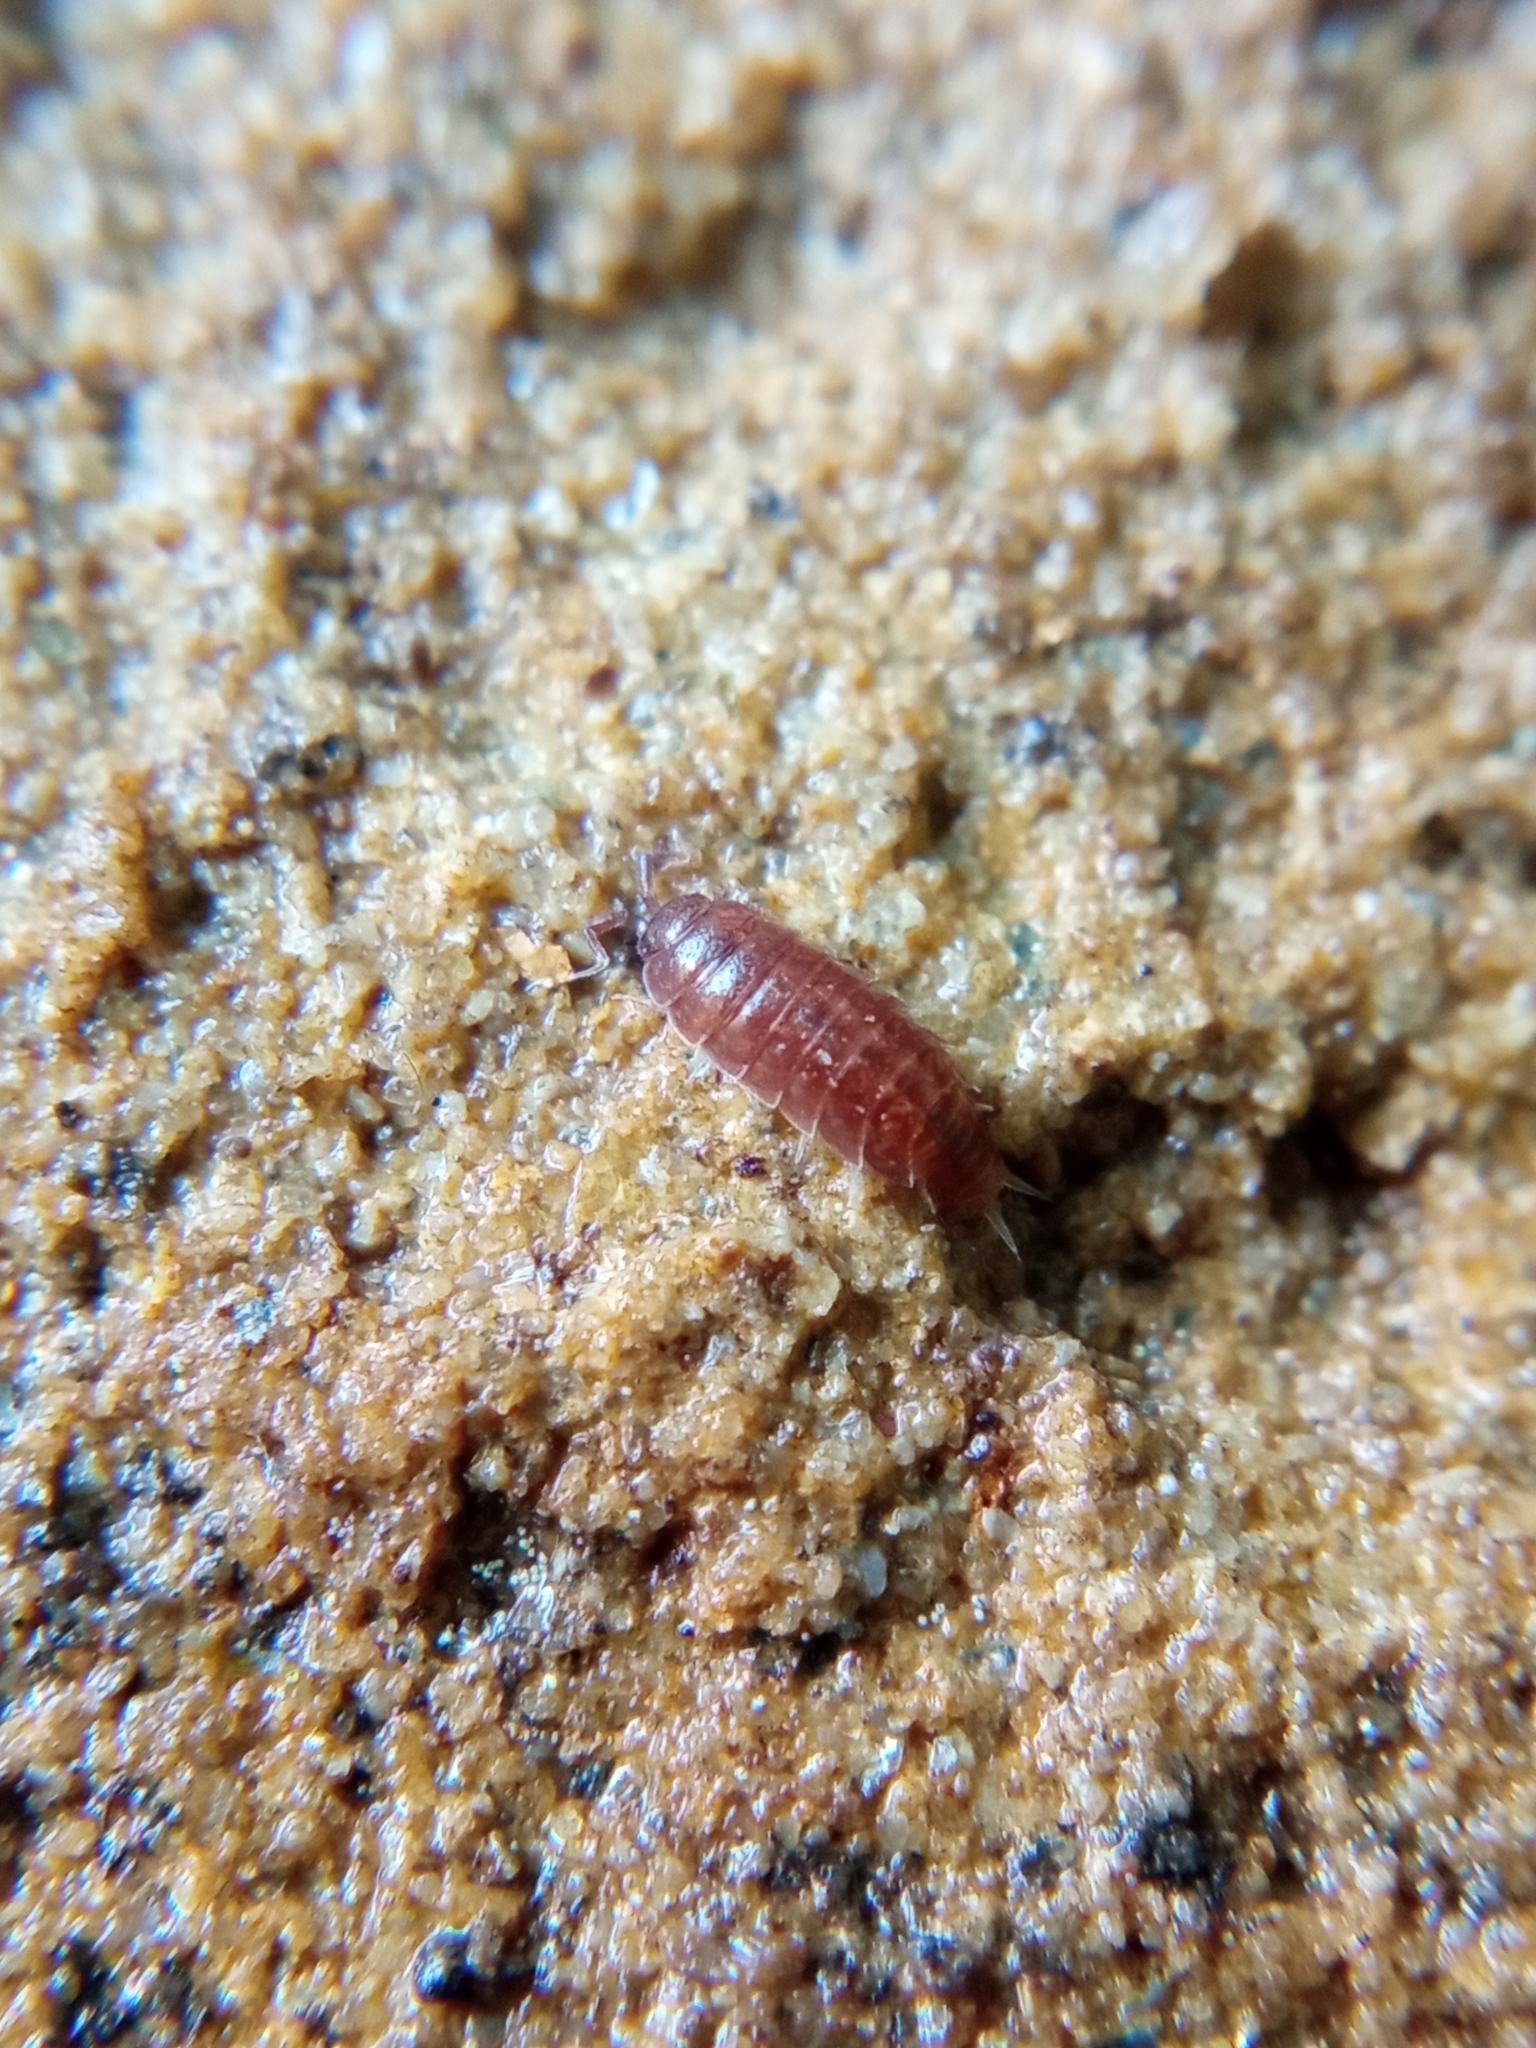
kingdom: Animalia
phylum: Arthropoda
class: Malacostraca
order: Isopoda
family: Trichoniscidae
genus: Hyloniscus
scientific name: Hyloniscus riparius
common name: Isopod
